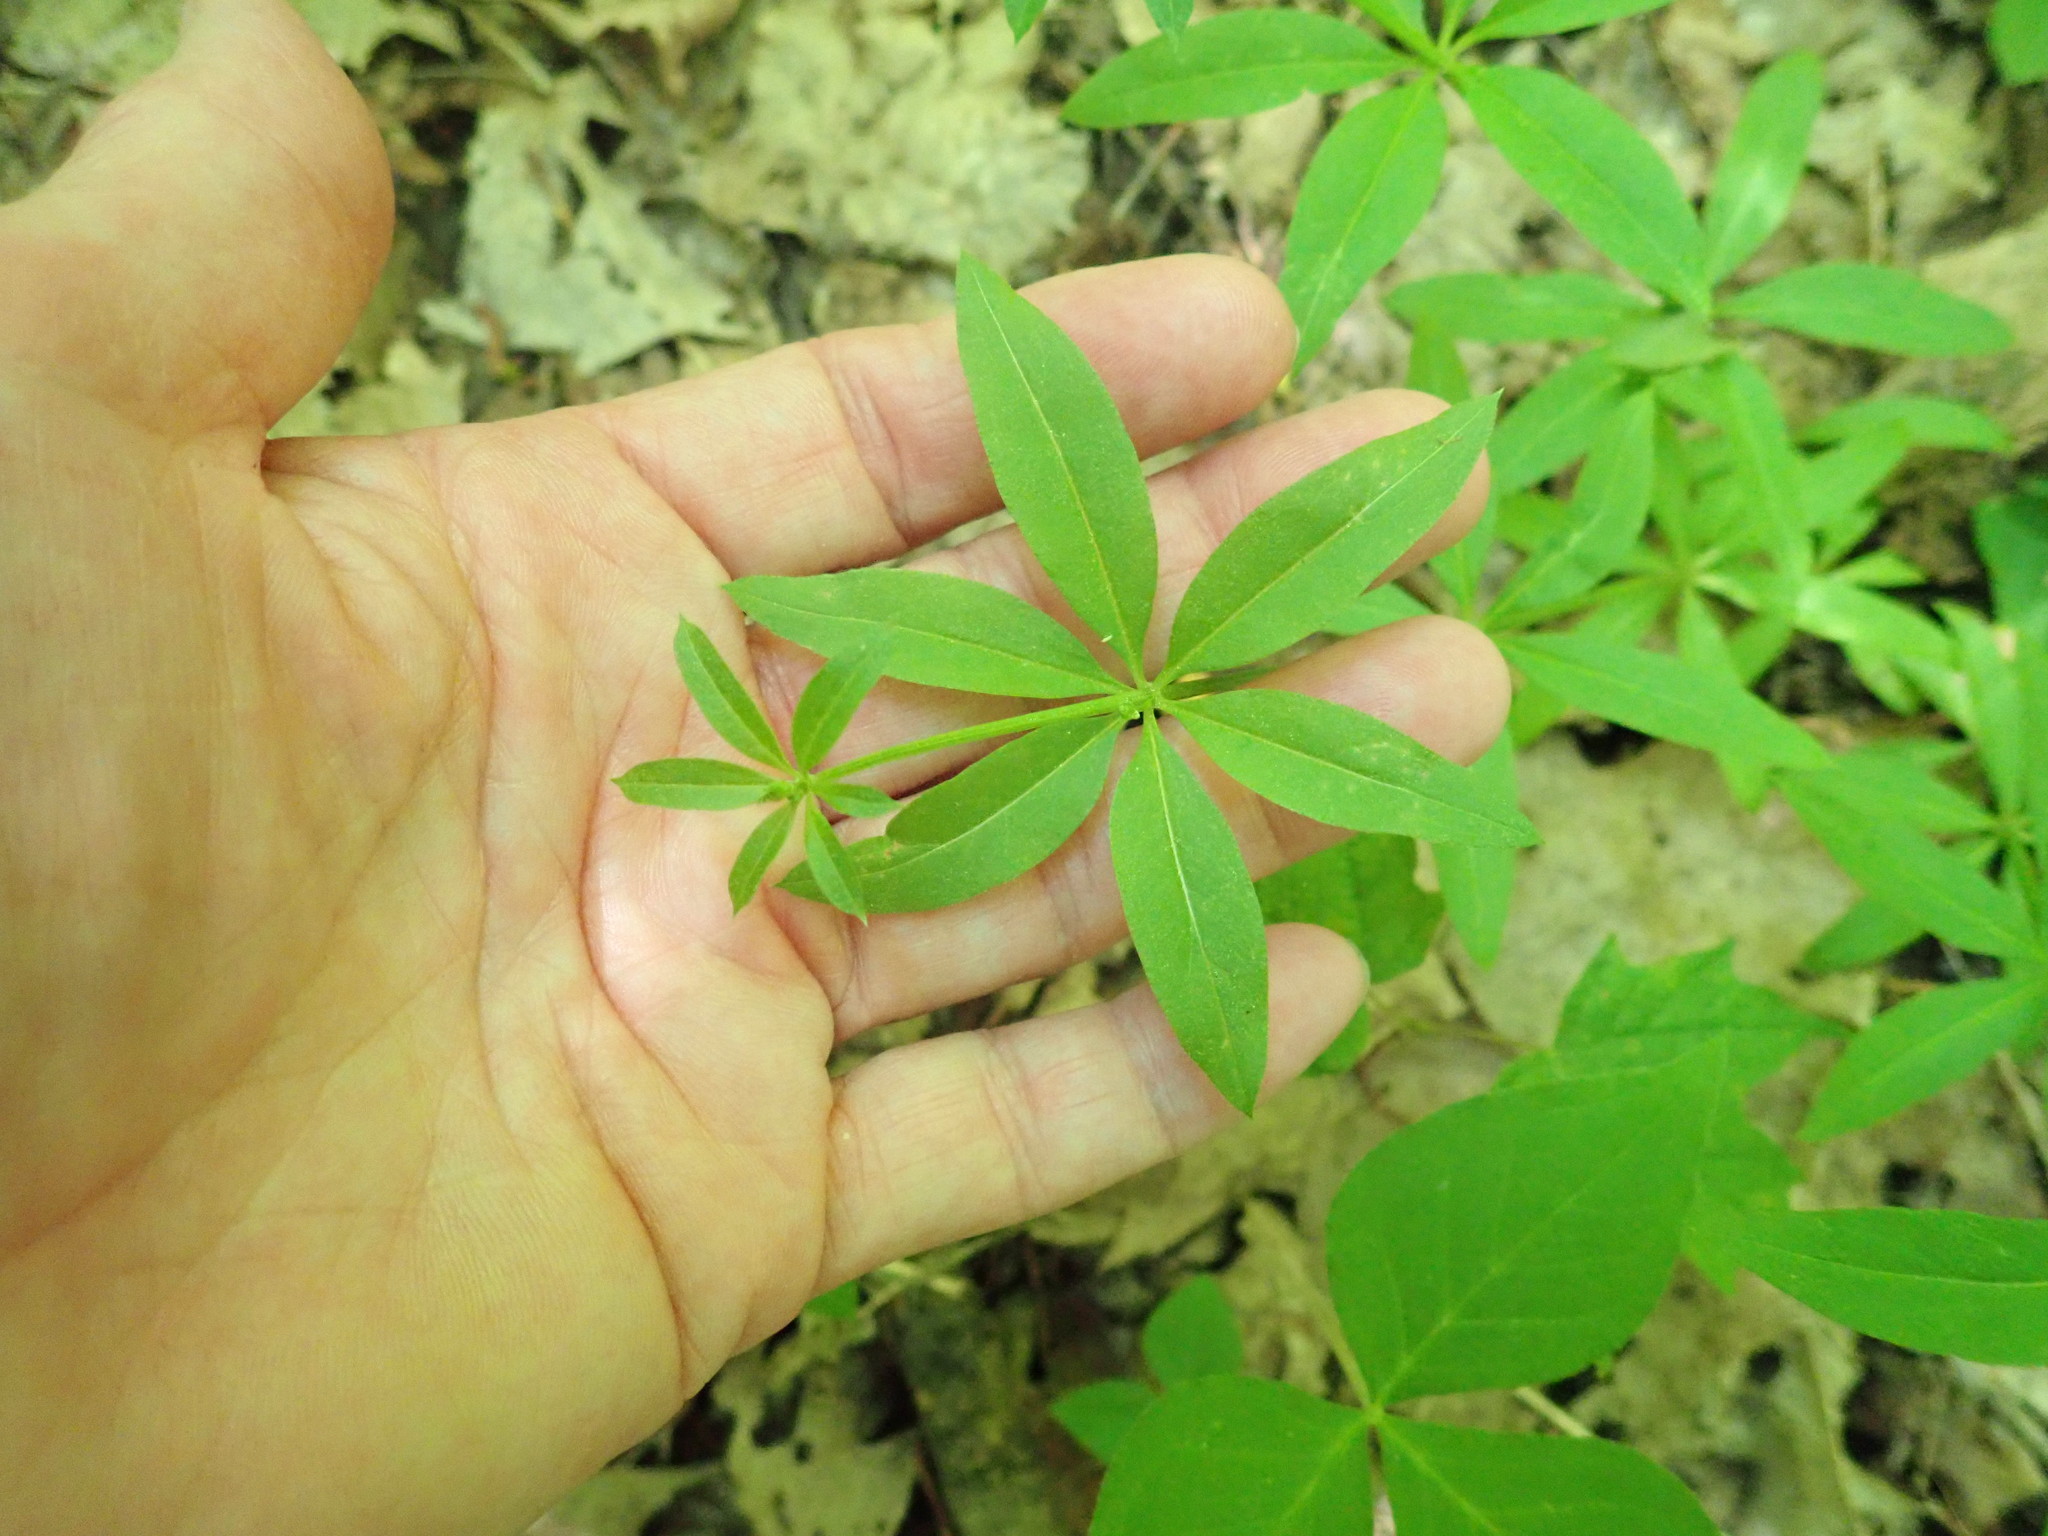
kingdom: Plantae
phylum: Tracheophyta
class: Magnoliopsida
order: Gentianales
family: Rubiaceae
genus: Galium
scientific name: Galium triflorum
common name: Fragrant bedstraw
